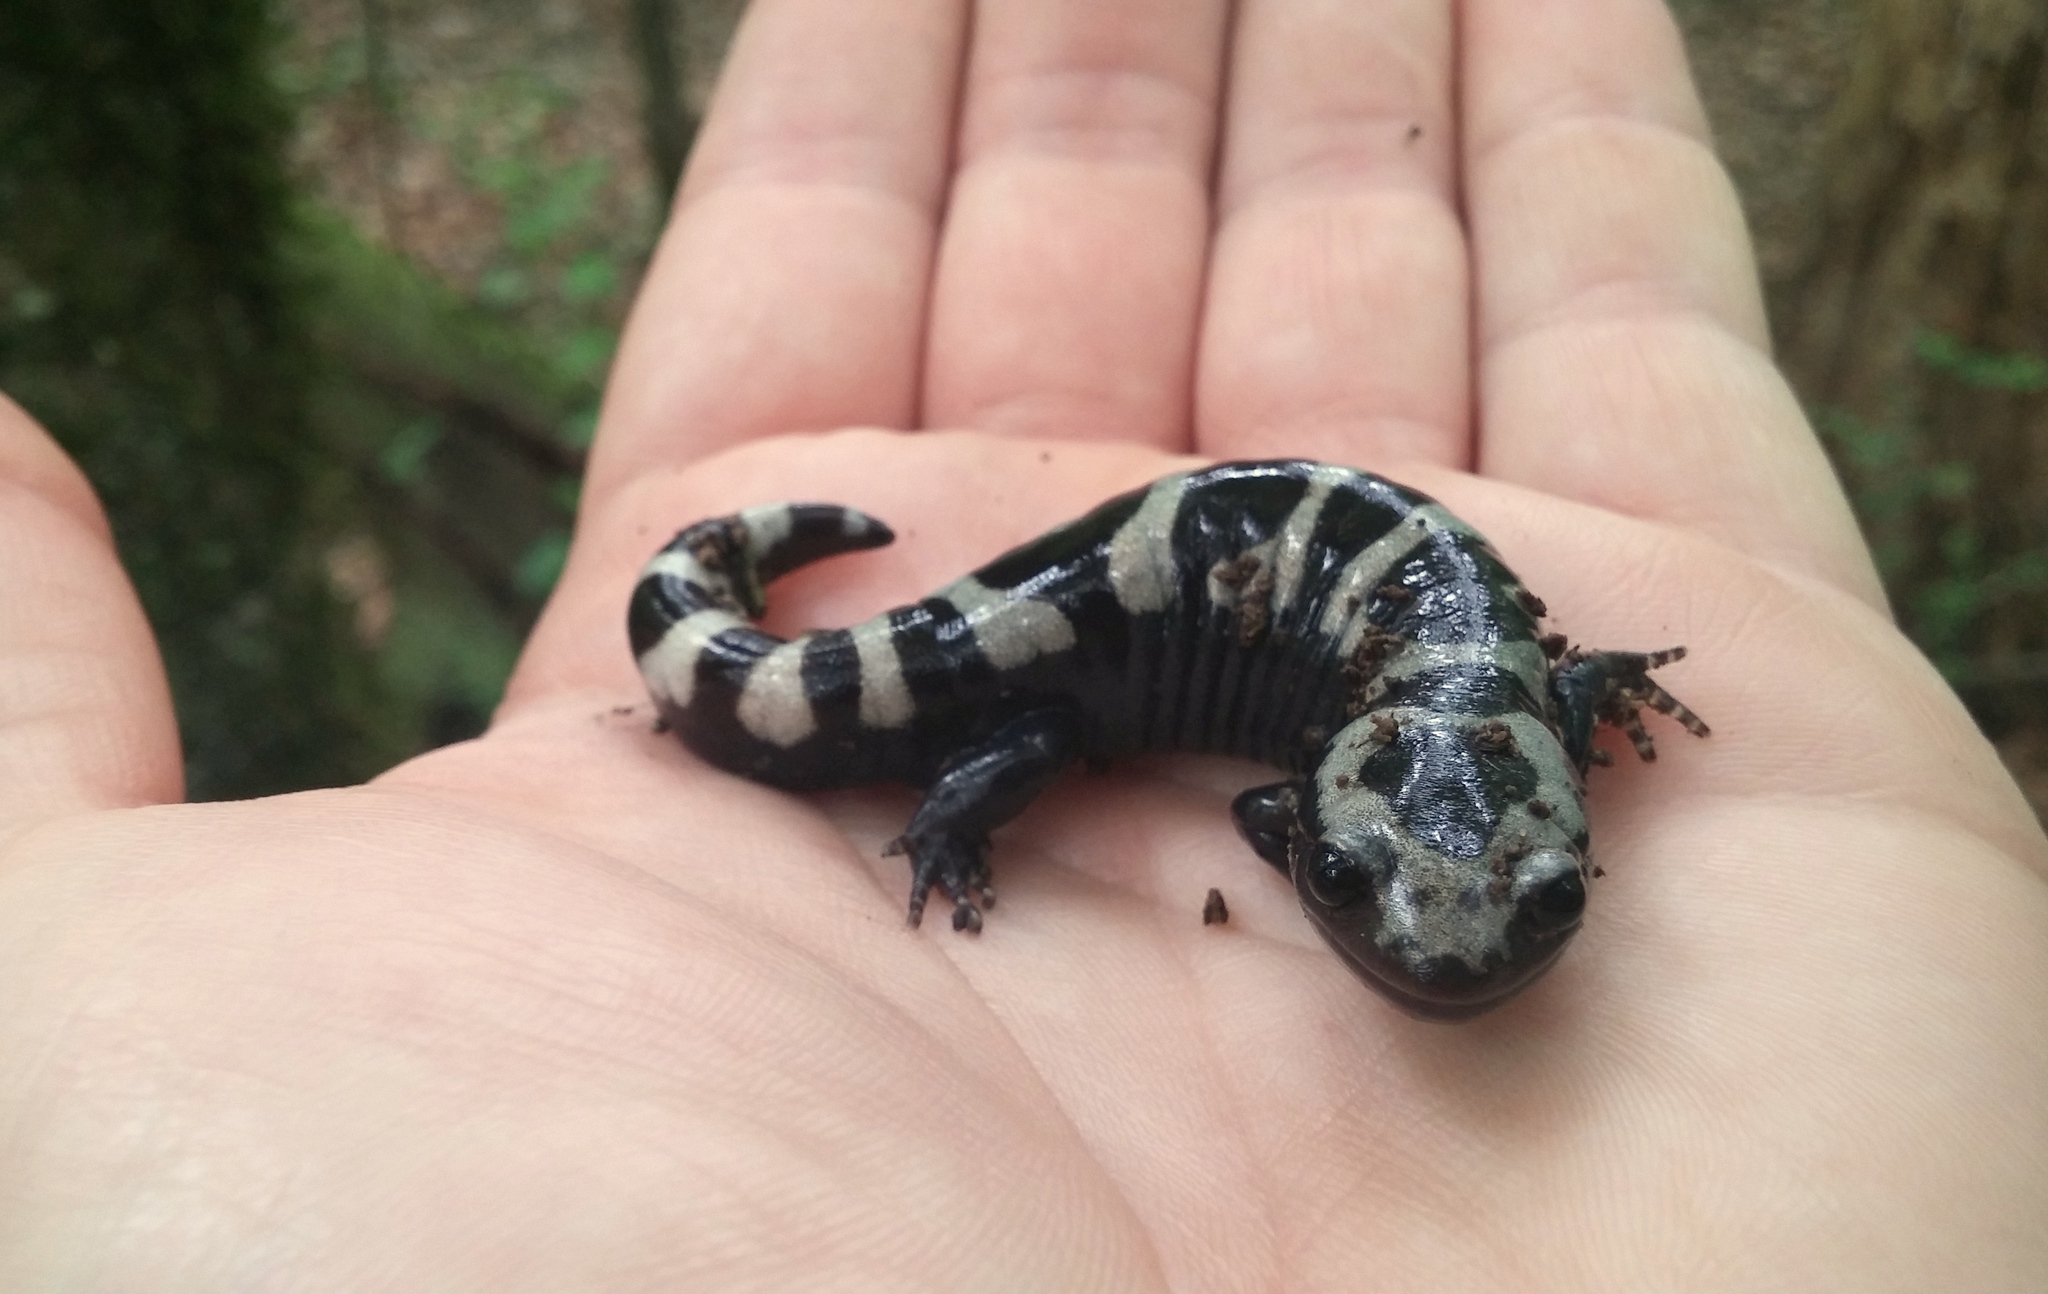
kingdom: Animalia
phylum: Chordata
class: Amphibia
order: Caudata
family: Ambystomatidae
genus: Ambystoma
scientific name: Ambystoma opacum
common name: Marbled salamander
